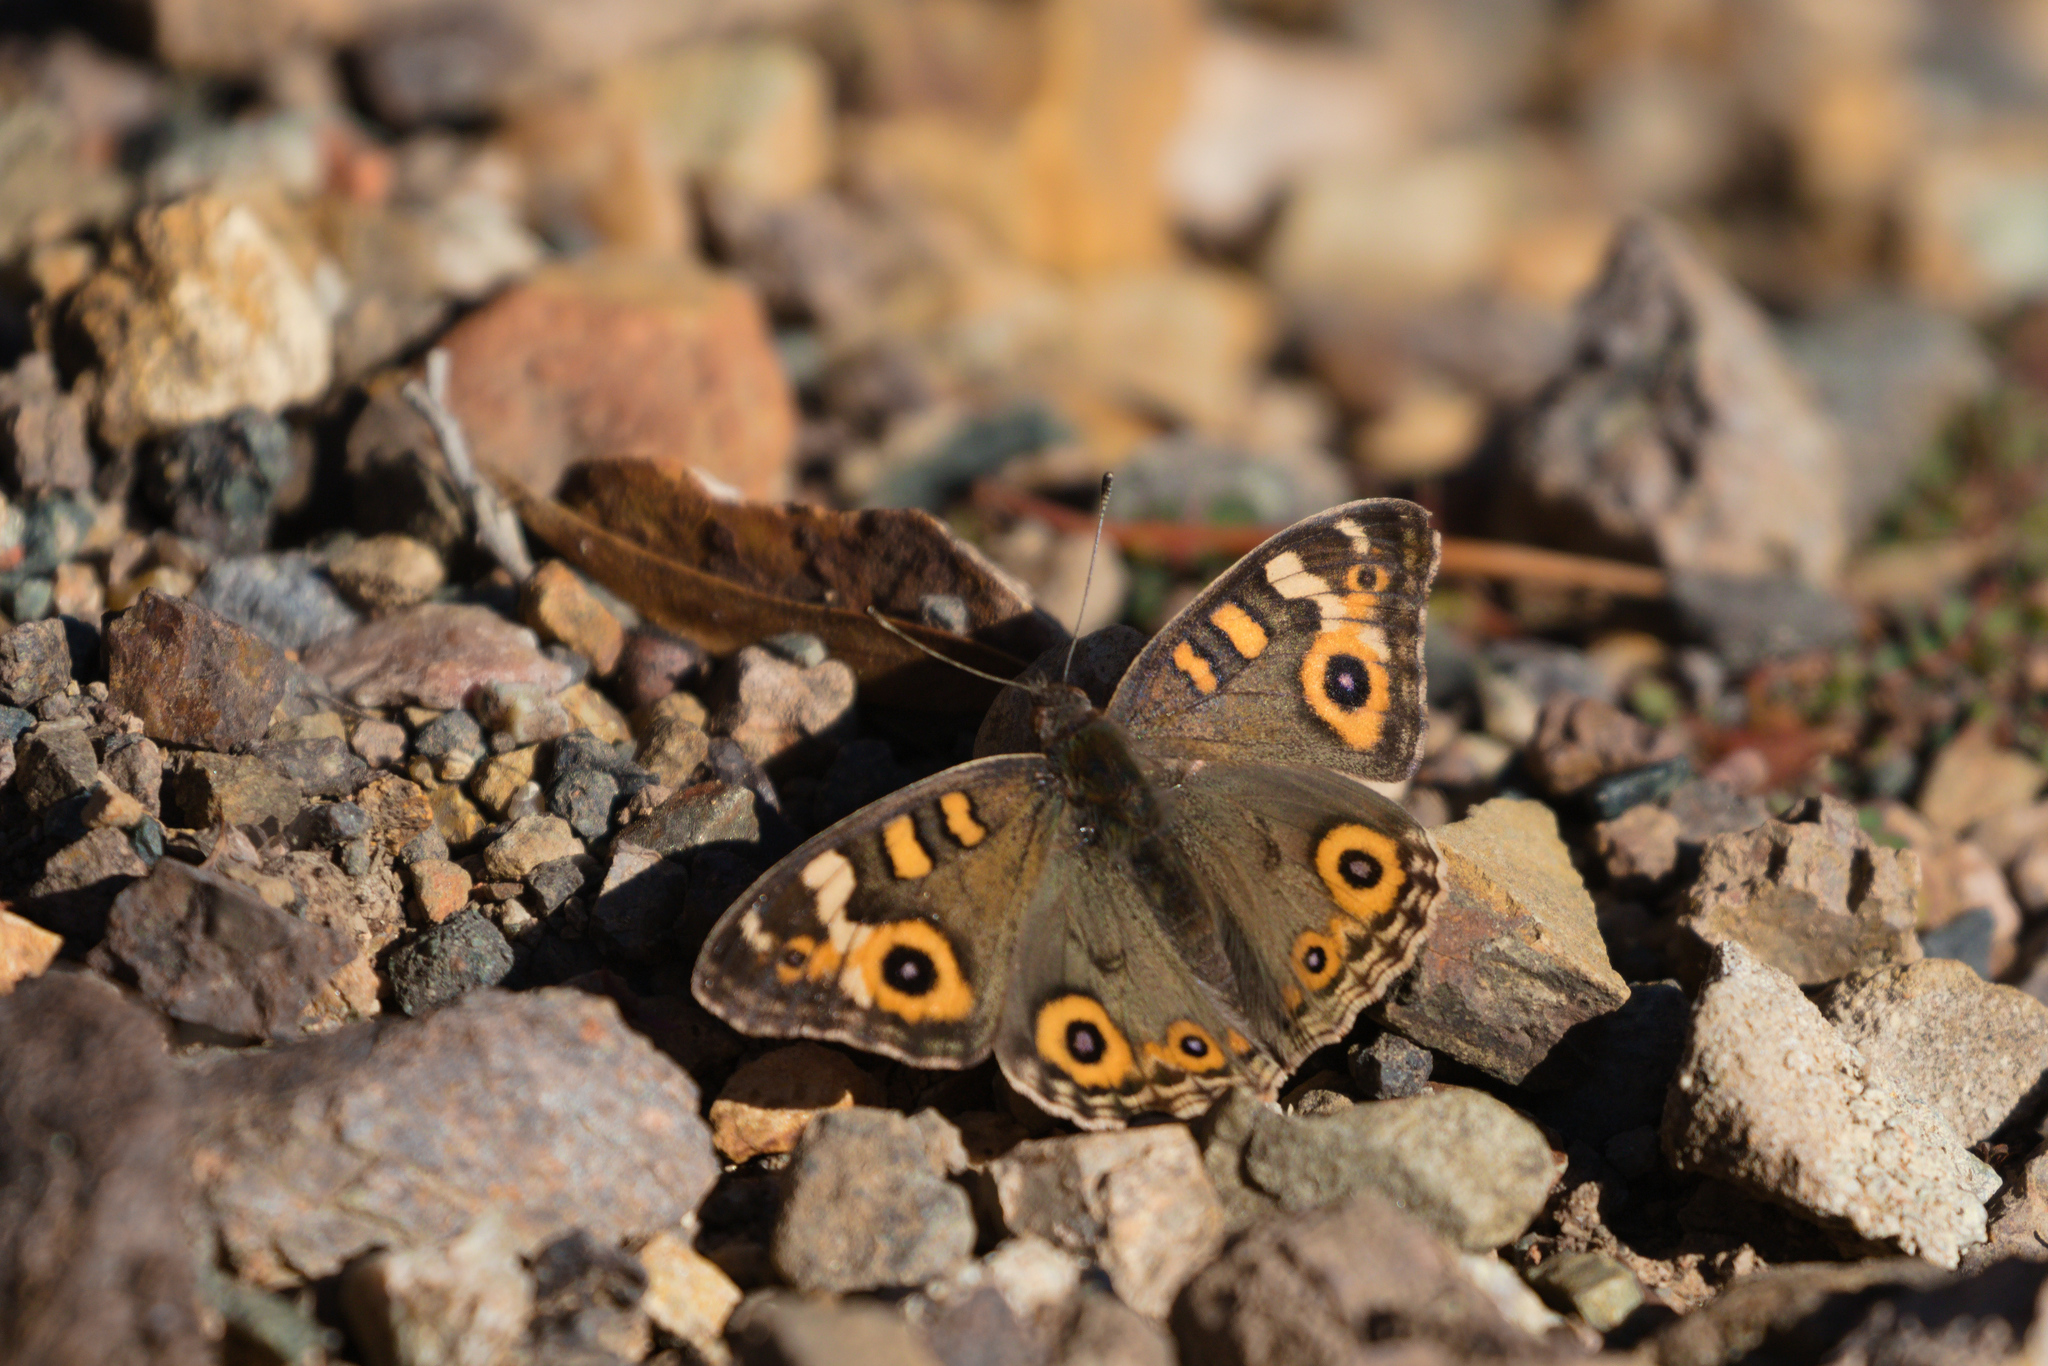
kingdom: Animalia
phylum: Arthropoda
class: Insecta
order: Lepidoptera
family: Nymphalidae
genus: Junonia
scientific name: Junonia villida
